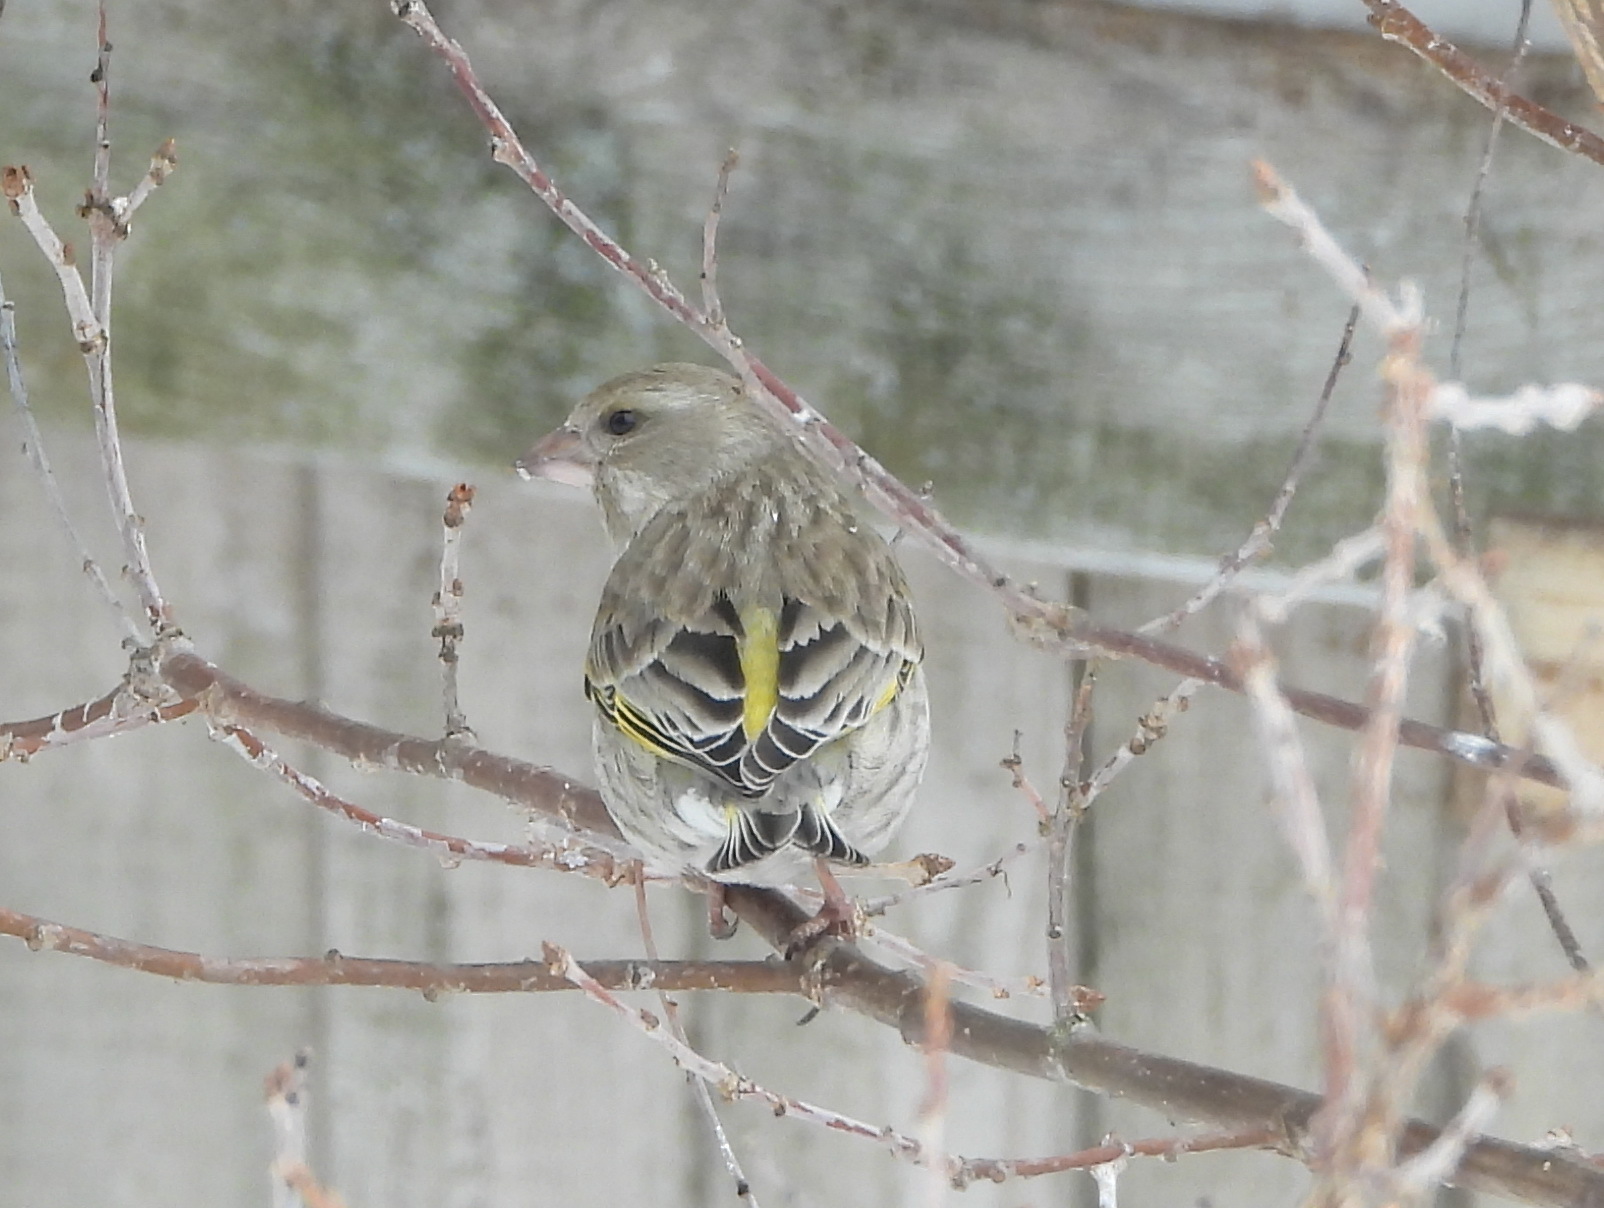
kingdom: Plantae
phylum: Tracheophyta
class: Liliopsida
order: Poales
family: Poaceae
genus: Chloris
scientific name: Chloris chloris
